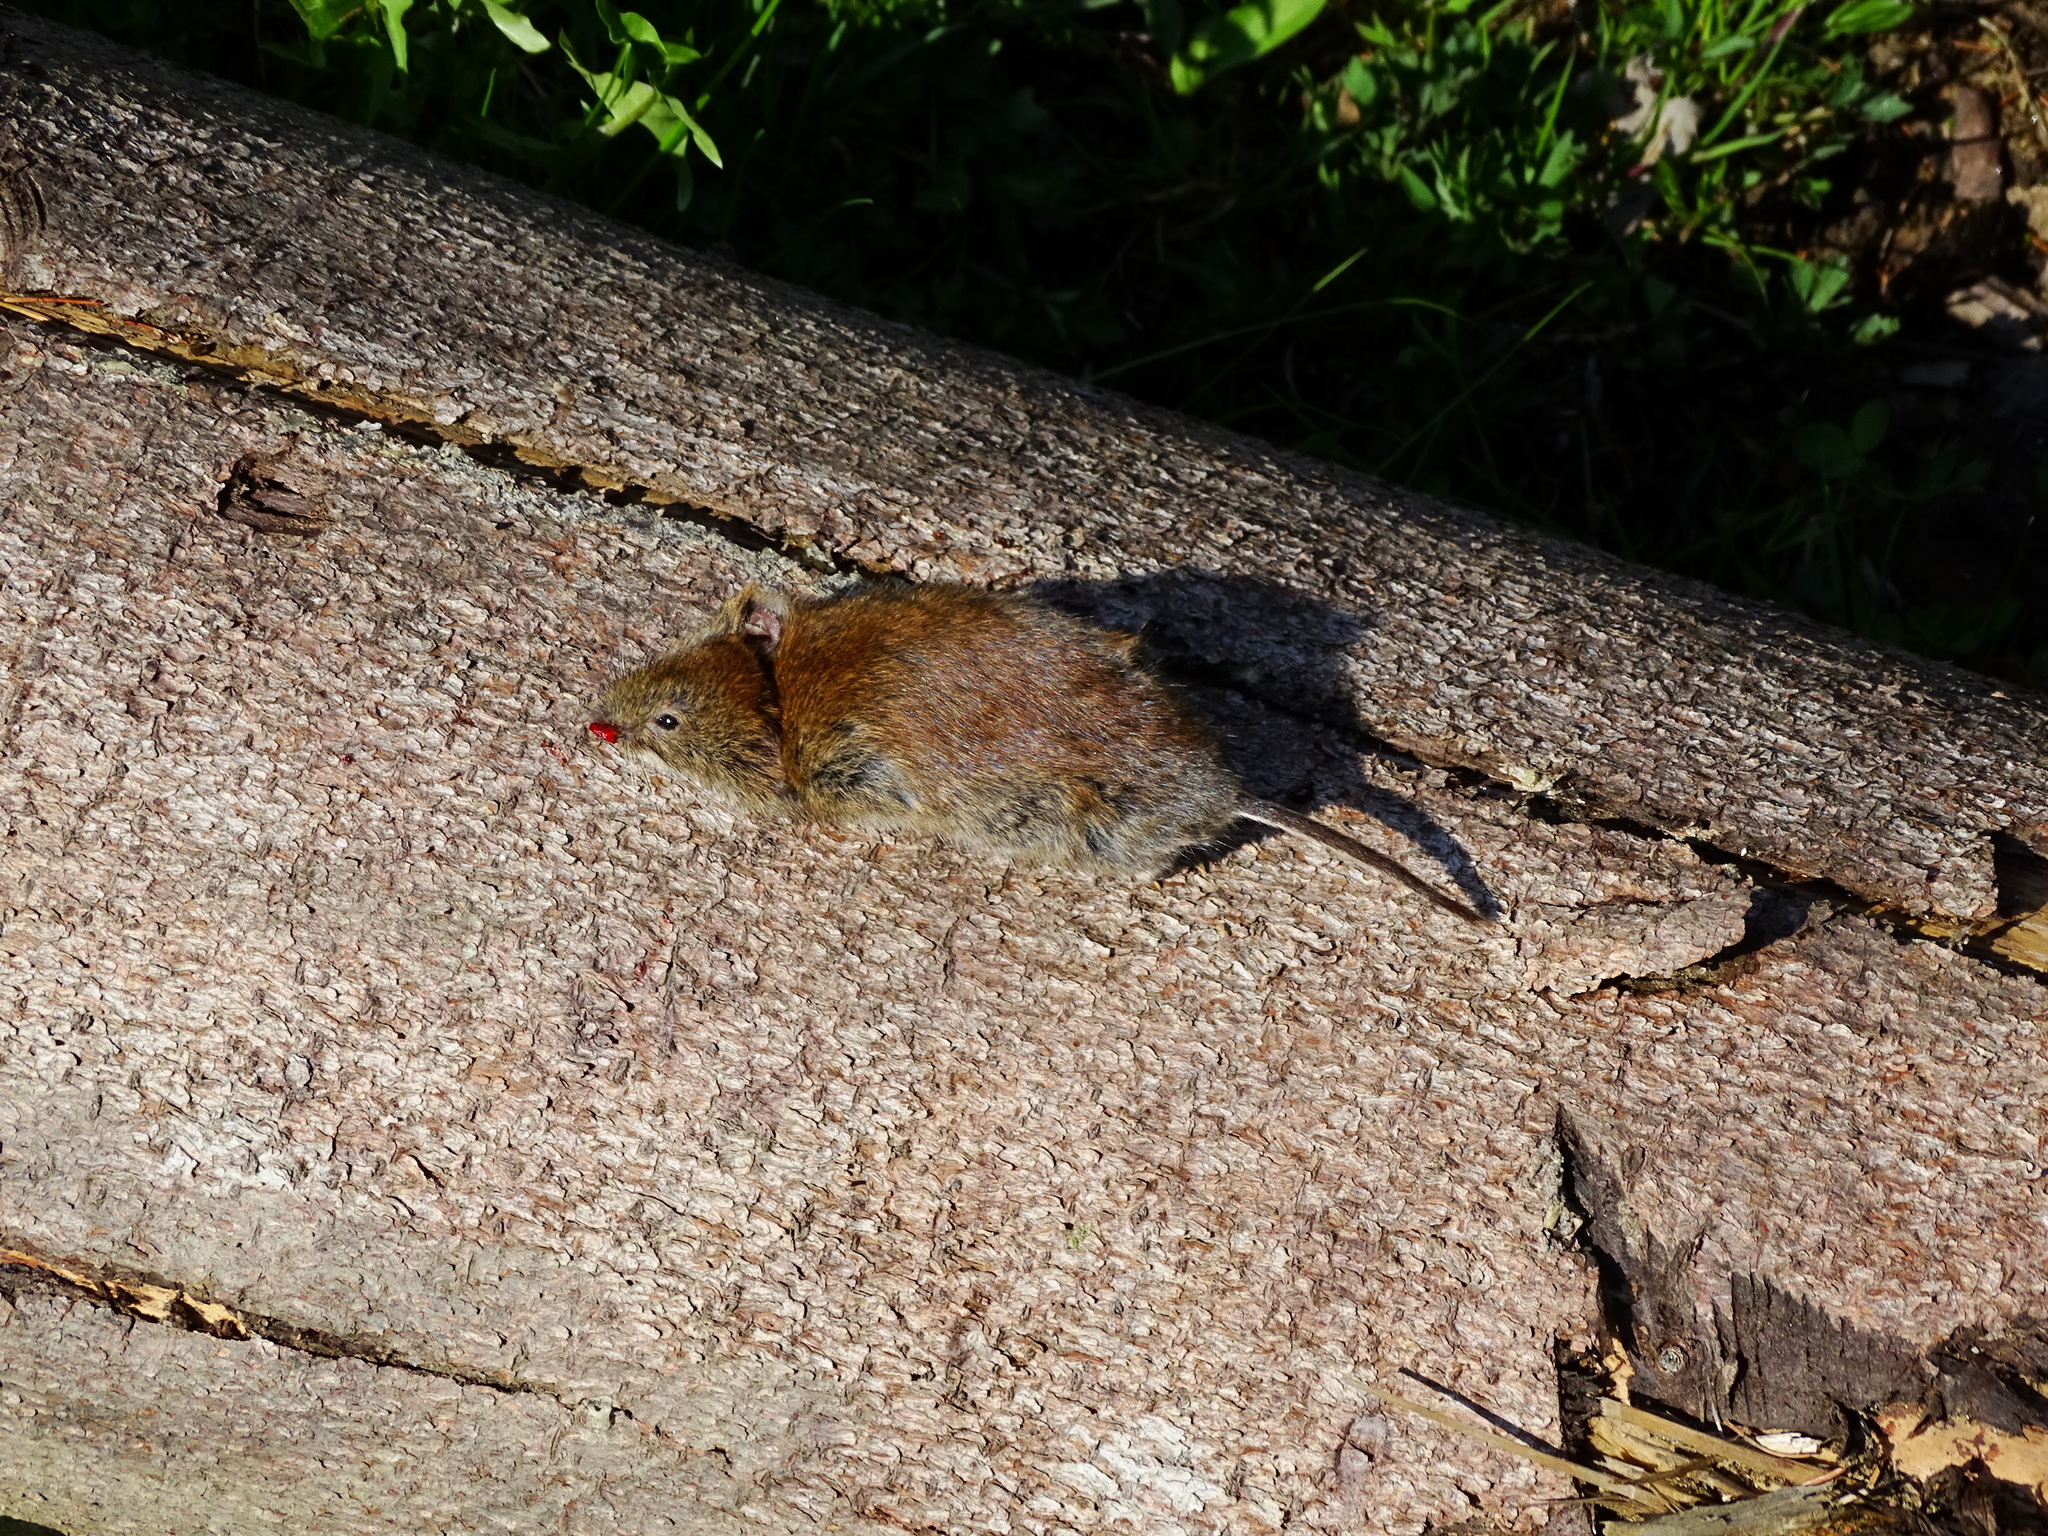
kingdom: Animalia
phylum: Chordata
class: Mammalia
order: Rodentia
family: Cricetidae
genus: Myodes
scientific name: Myodes glareolus
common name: Bank vole
